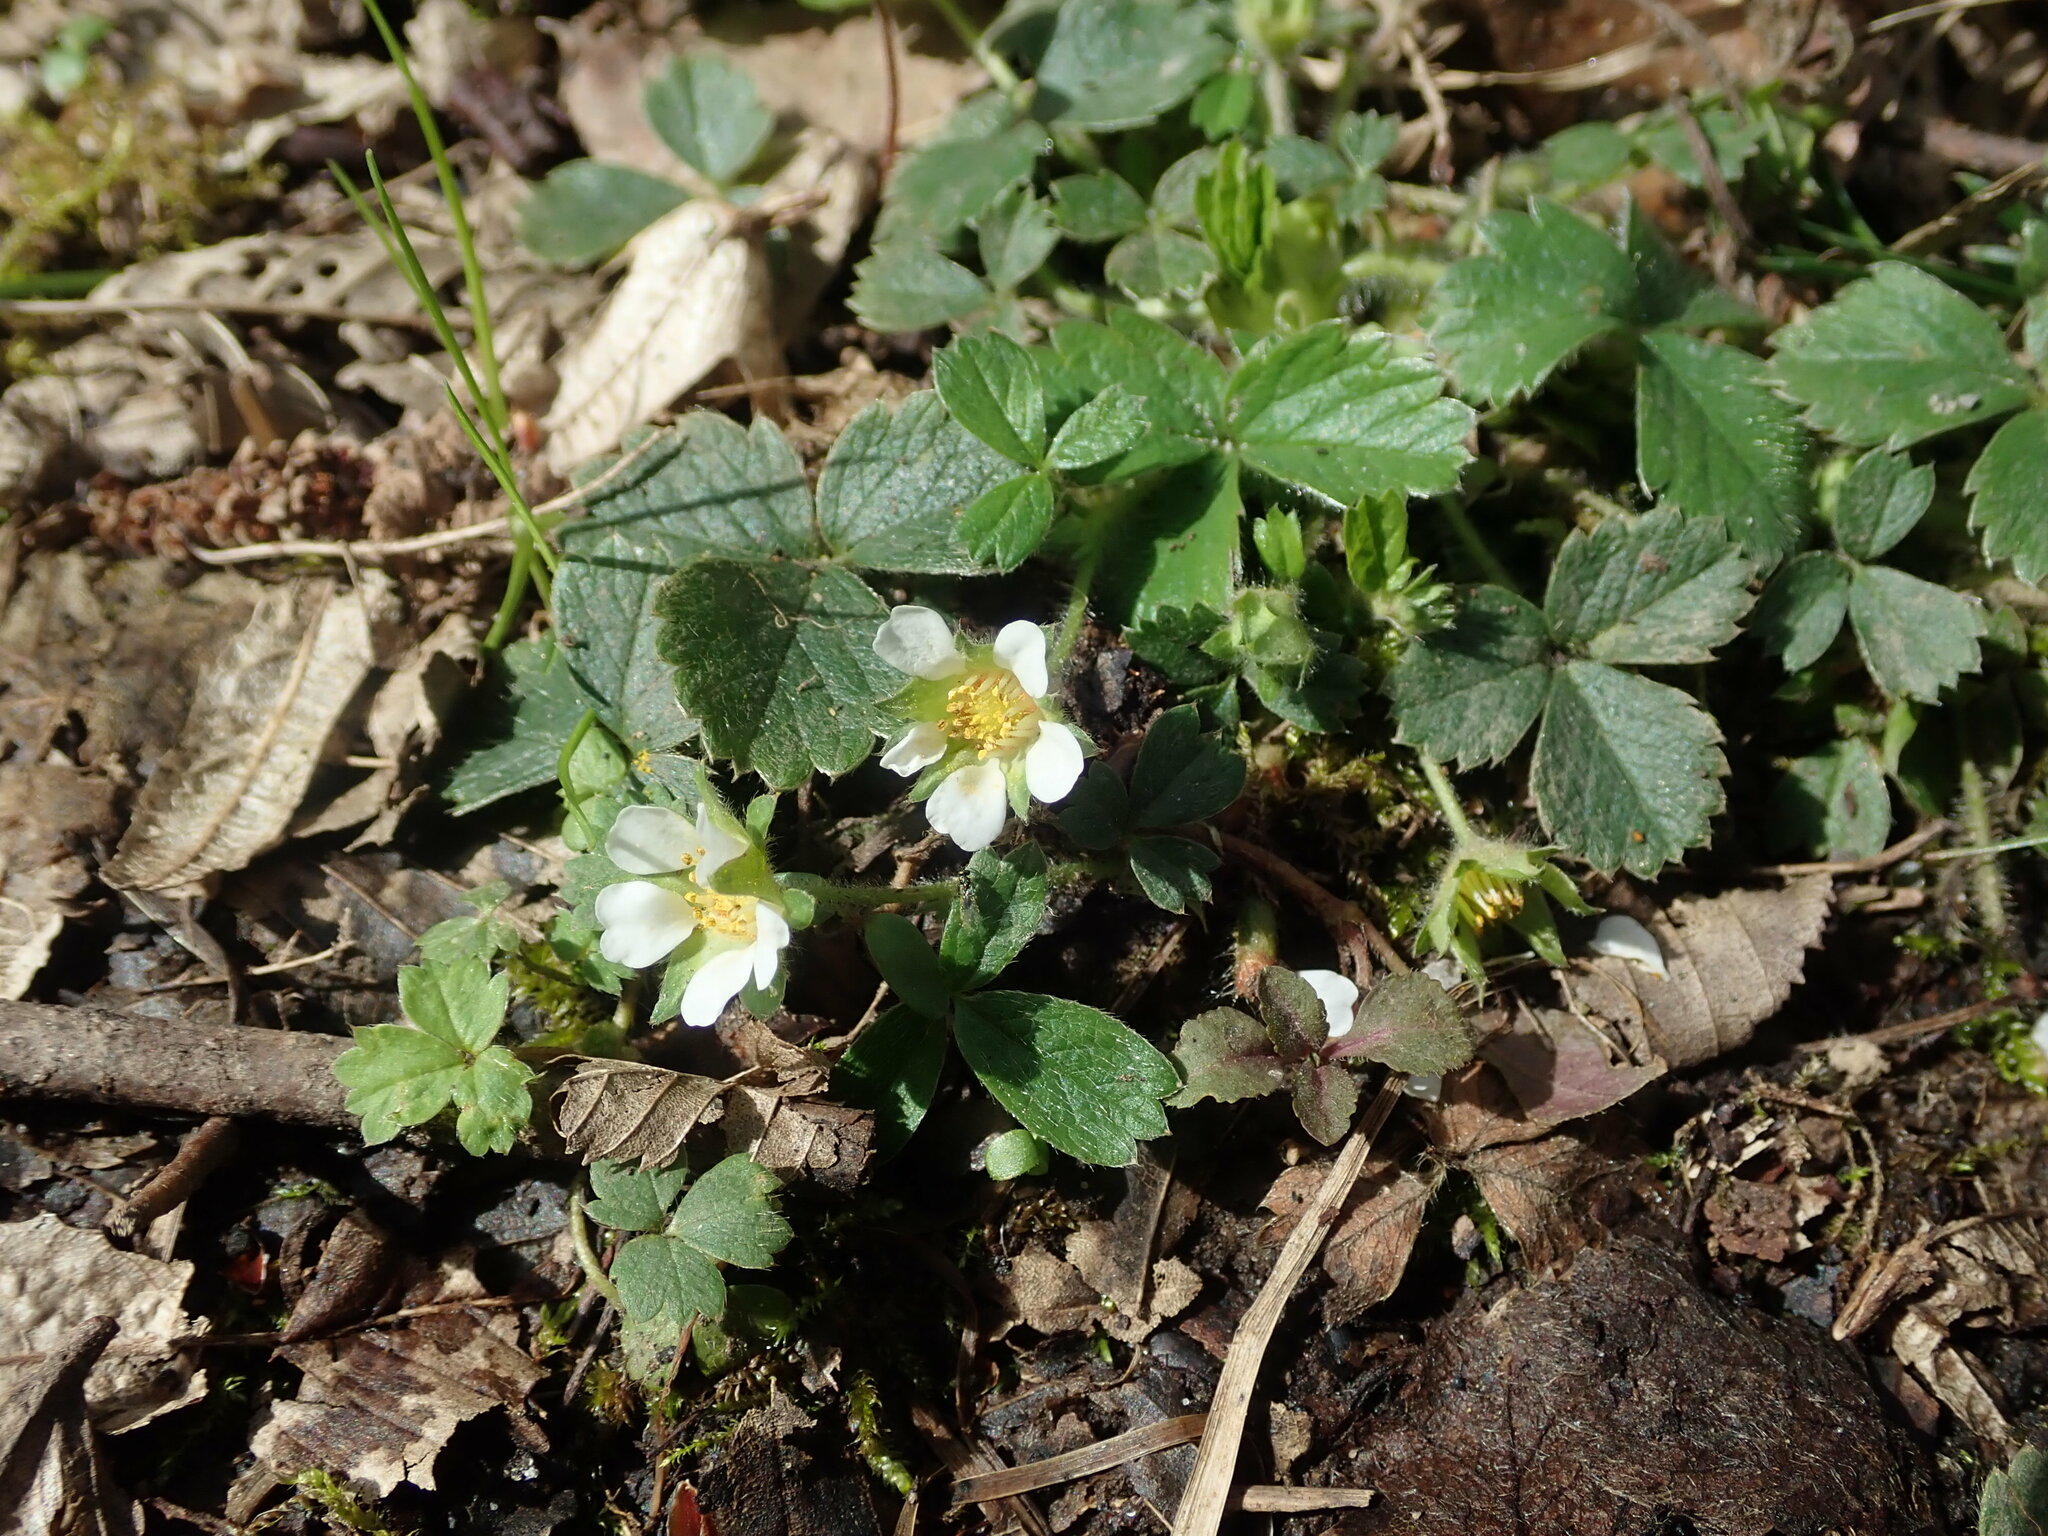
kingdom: Plantae
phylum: Tracheophyta
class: Magnoliopsida
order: Rosales
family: Rosaceae
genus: Potentilla
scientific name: Potentilla sterilis
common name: Barren strawberry
